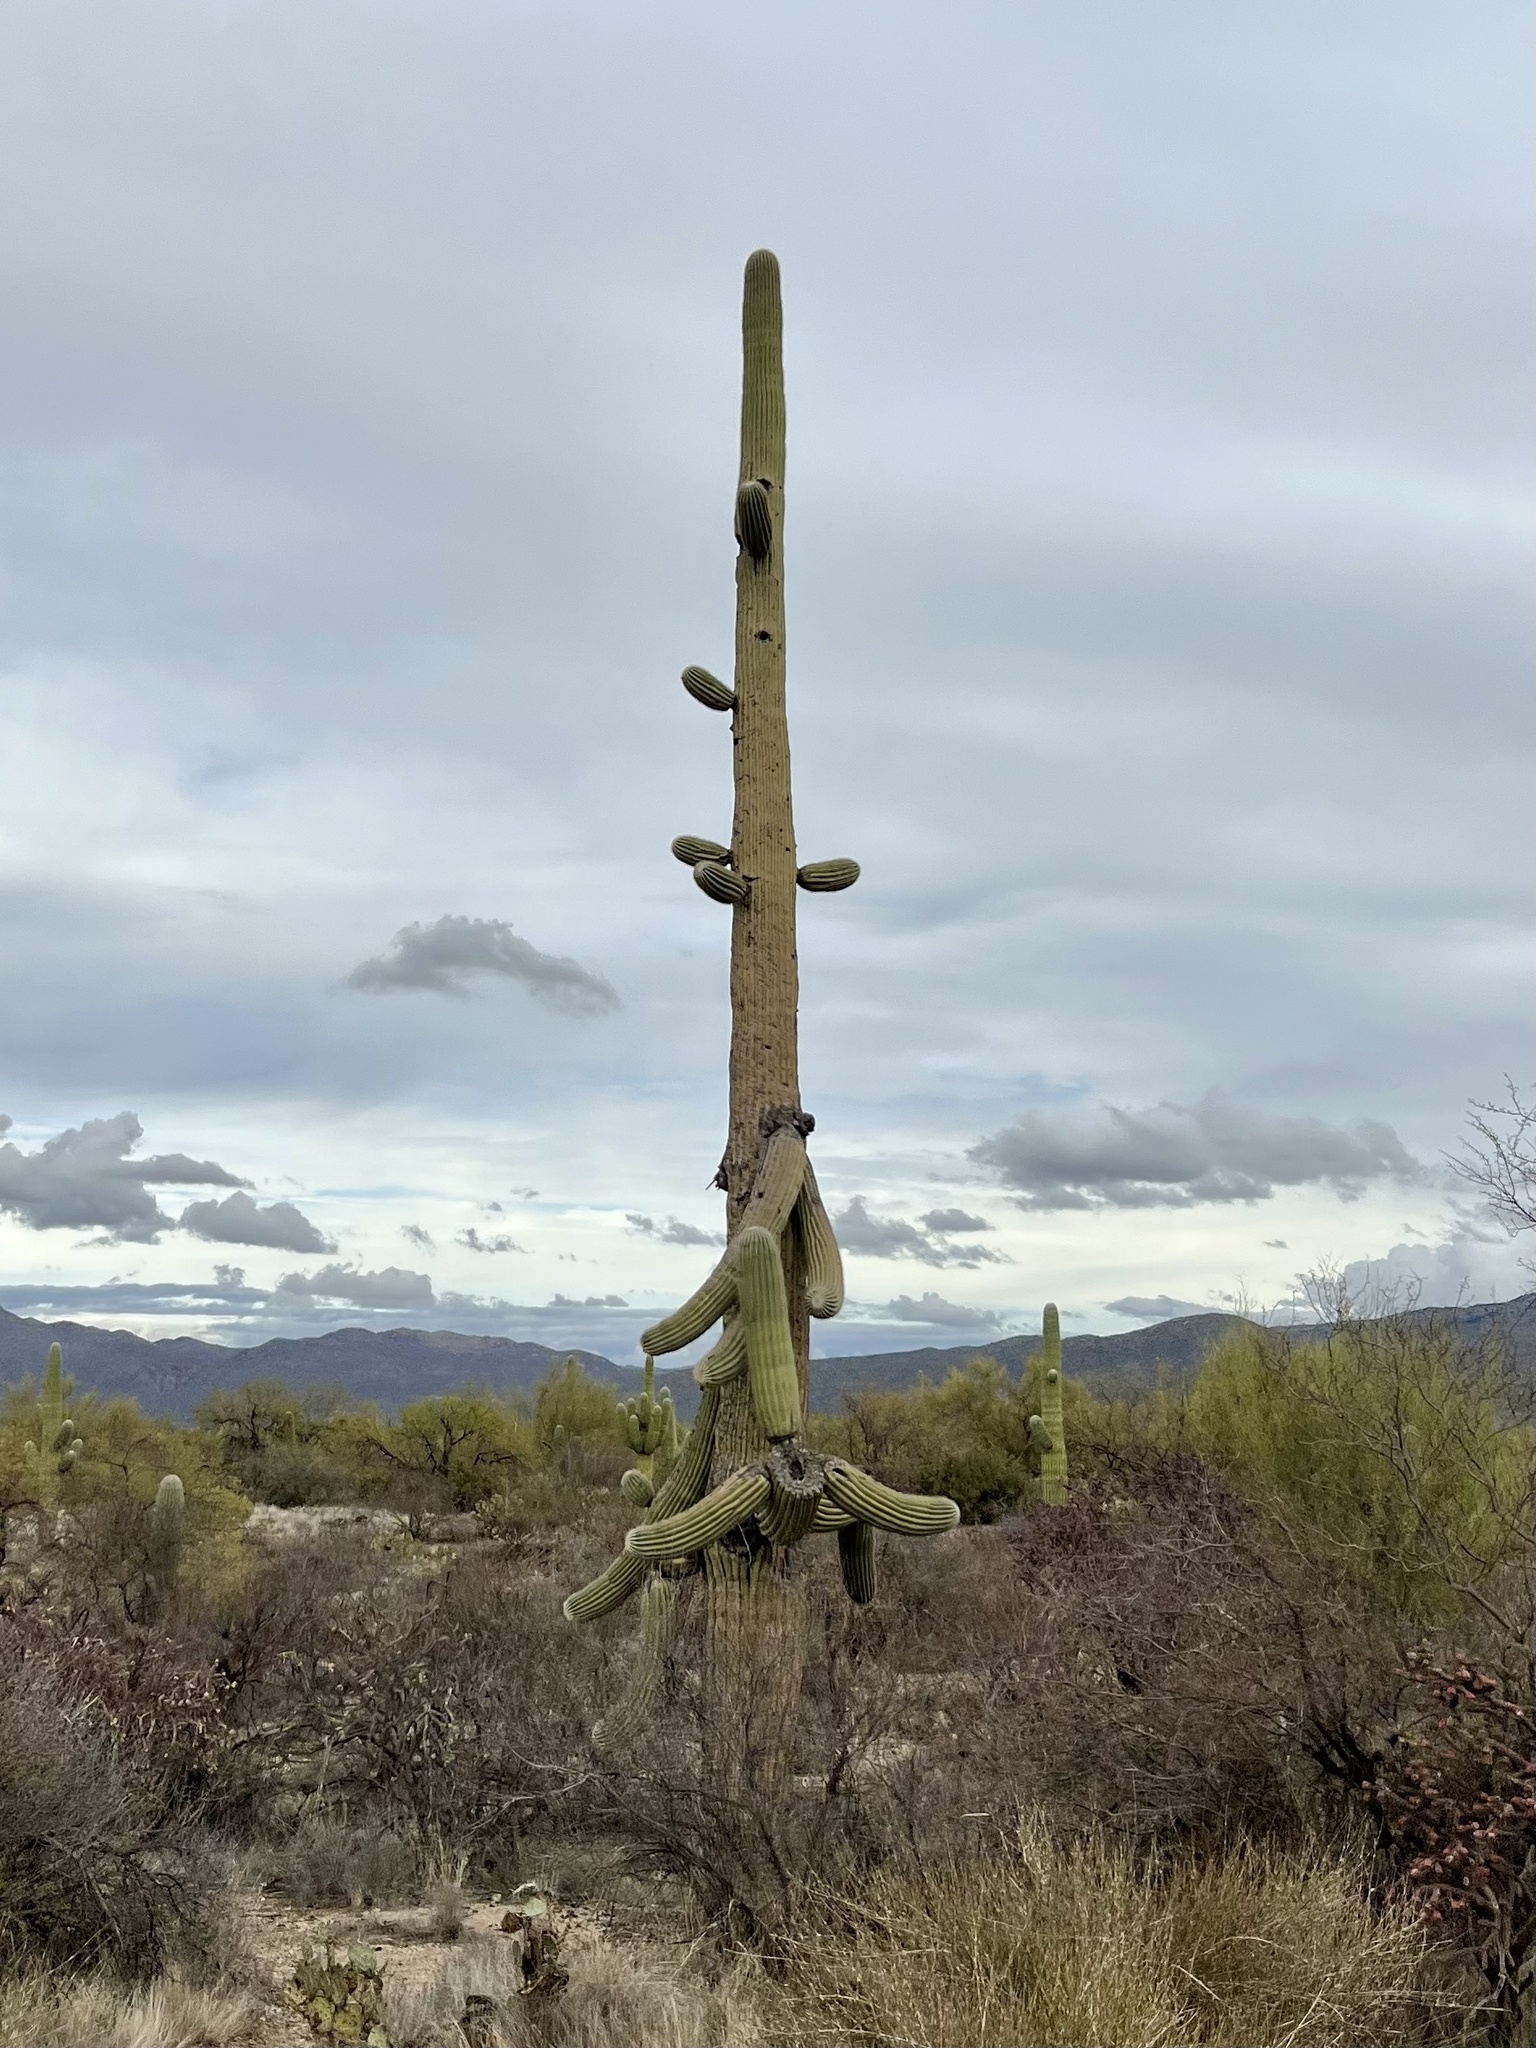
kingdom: Plantae
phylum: Tracheophyta
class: Magnoliopsida
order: Caryophyllales
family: Cactaceae
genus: Carnegiea
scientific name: Carnegiea gigantea
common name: Saguaro
